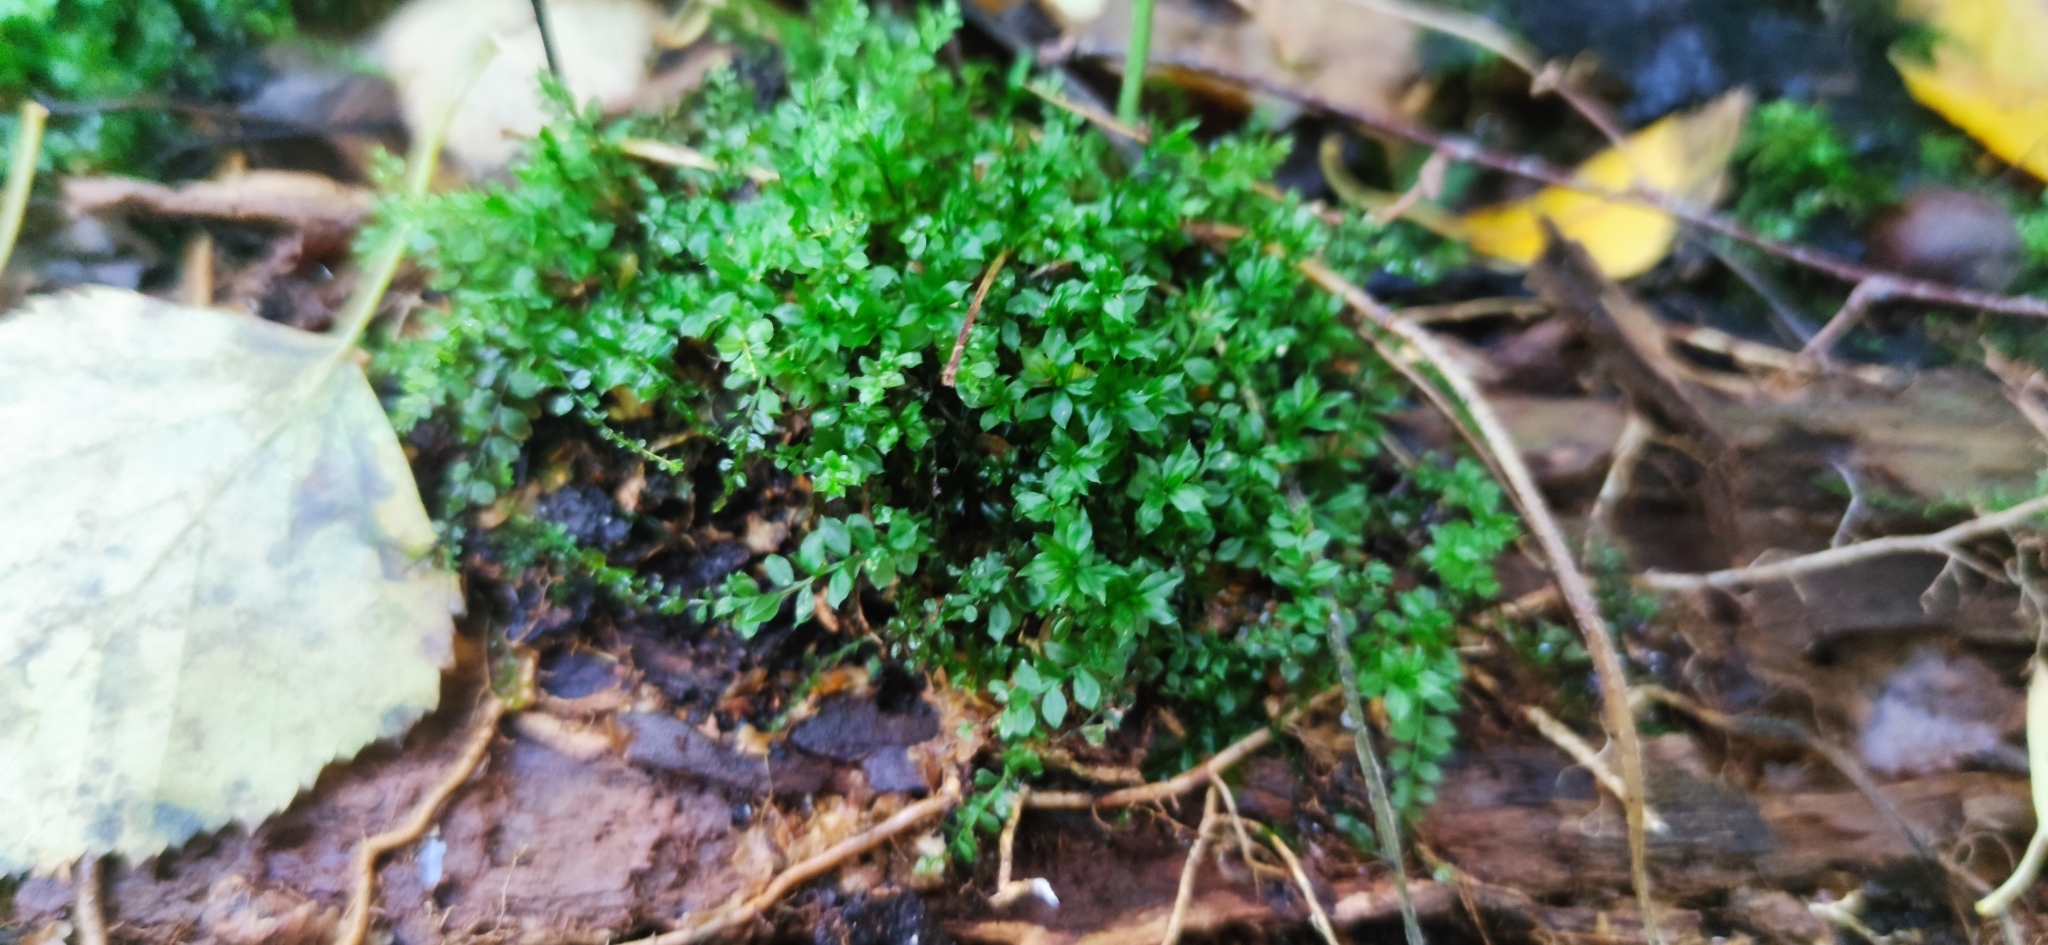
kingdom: Plantae
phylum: Bryophyta
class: Bryopsida
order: Bryales
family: Mniaceae
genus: Plagiomnium
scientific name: Plagiomnium cuspidatum
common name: Woodsy leafy moss
